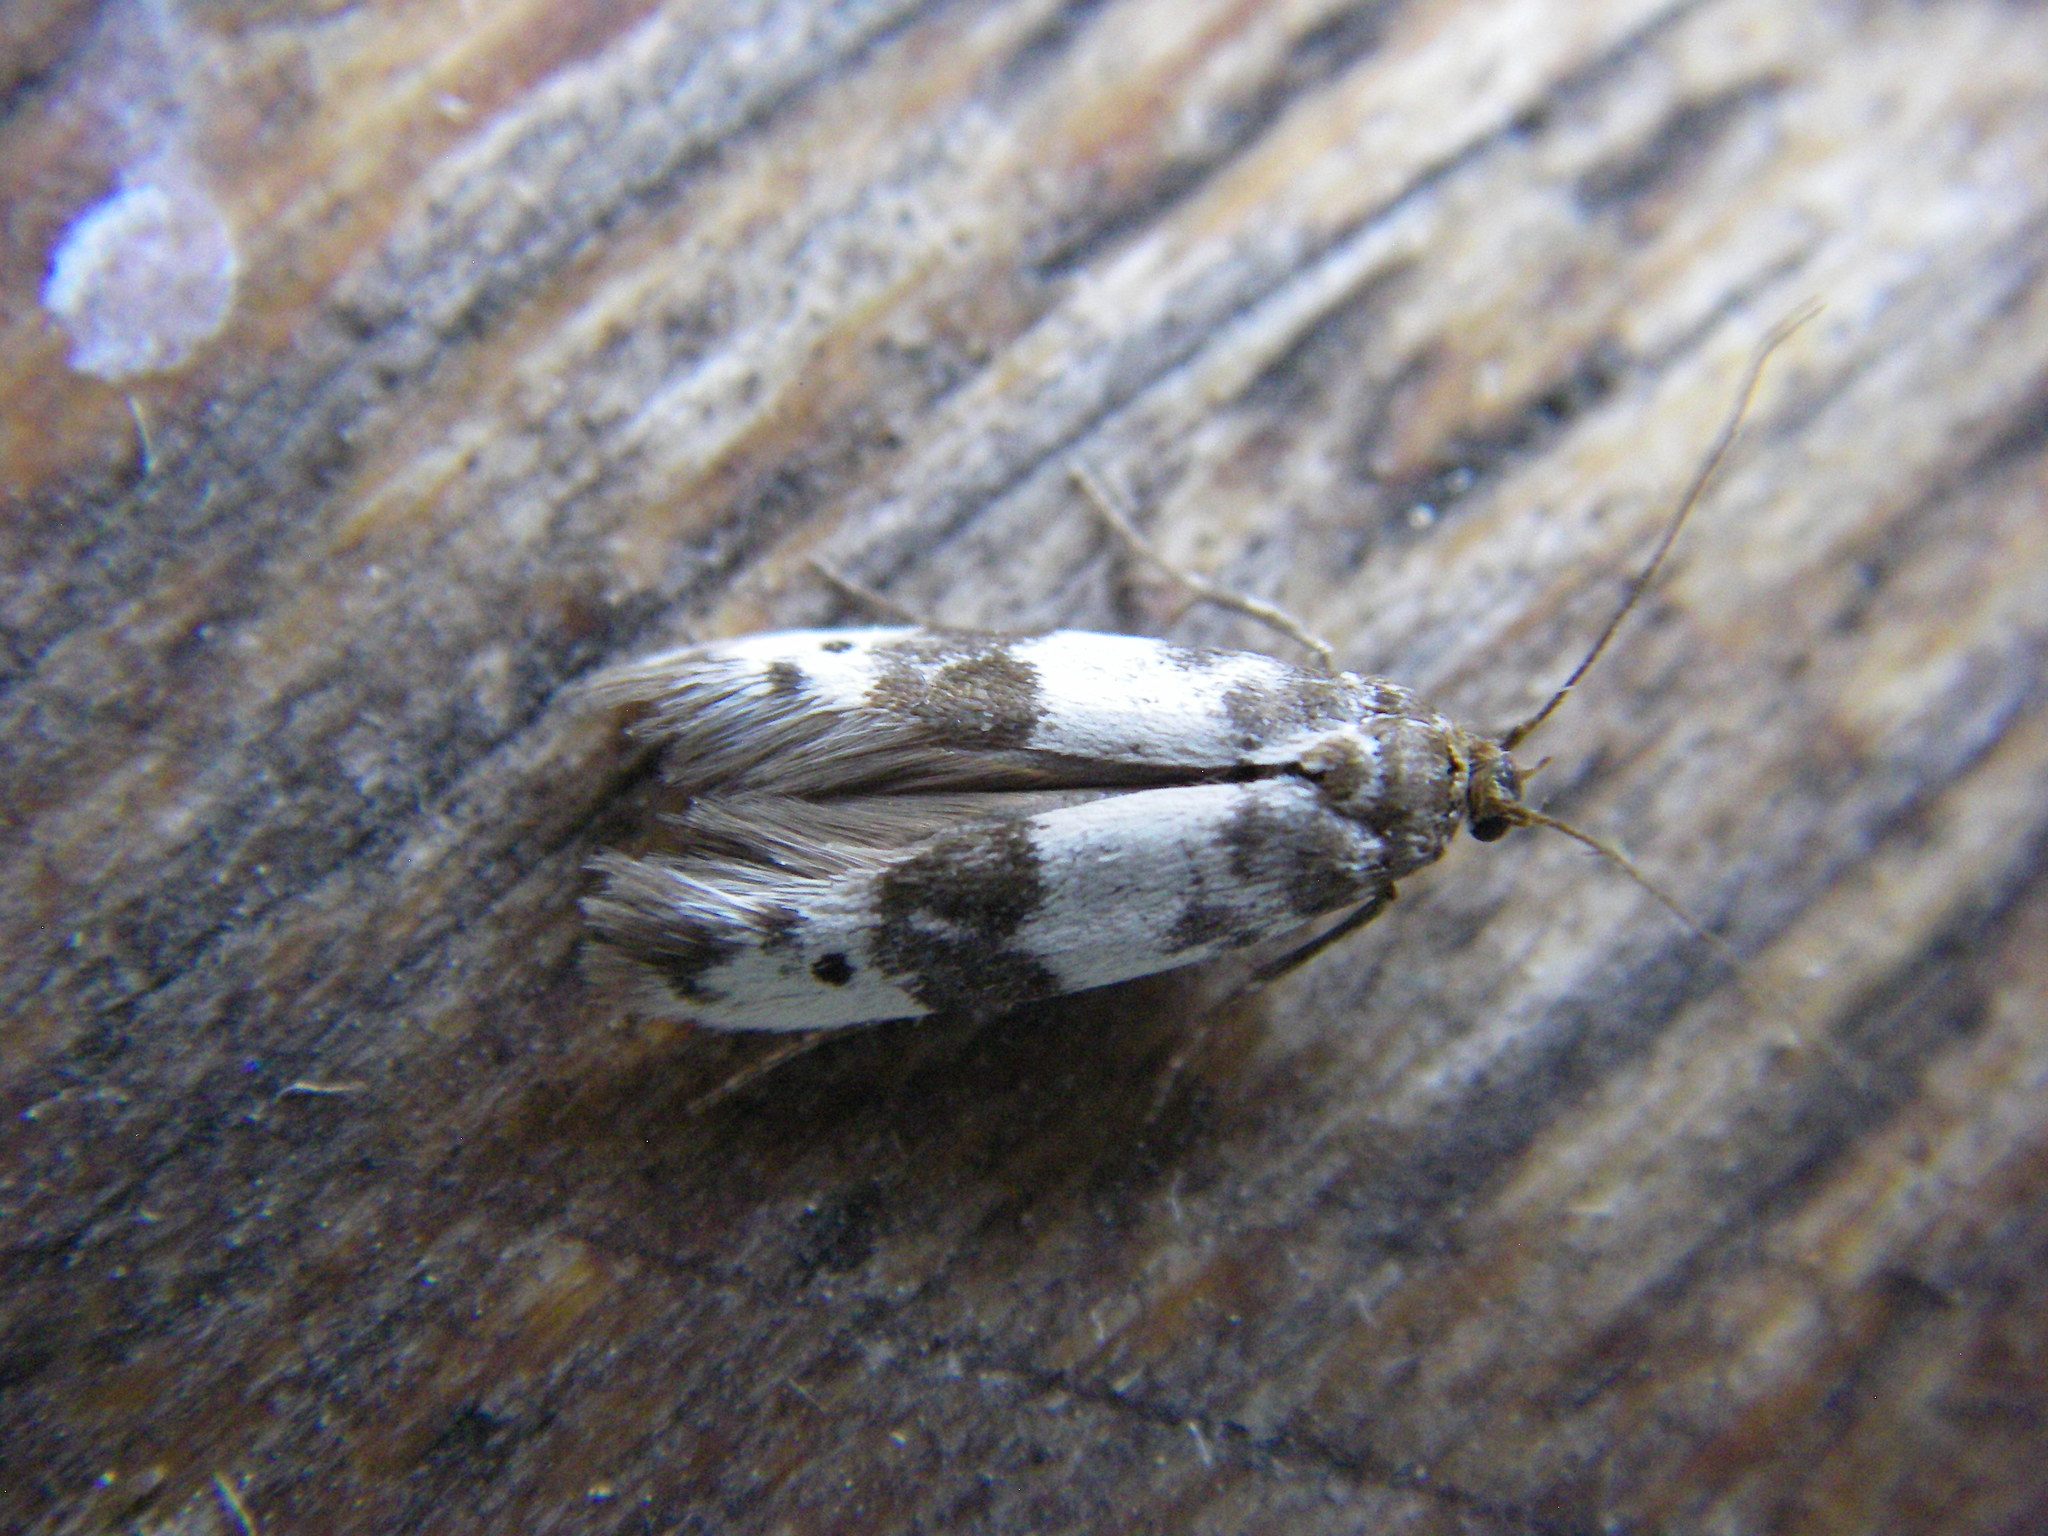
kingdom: Animalia
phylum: Arthropoda
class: Insecta
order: Lepidoptera
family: Scythrididae
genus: Enolmis
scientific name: Enolmis acanthella
